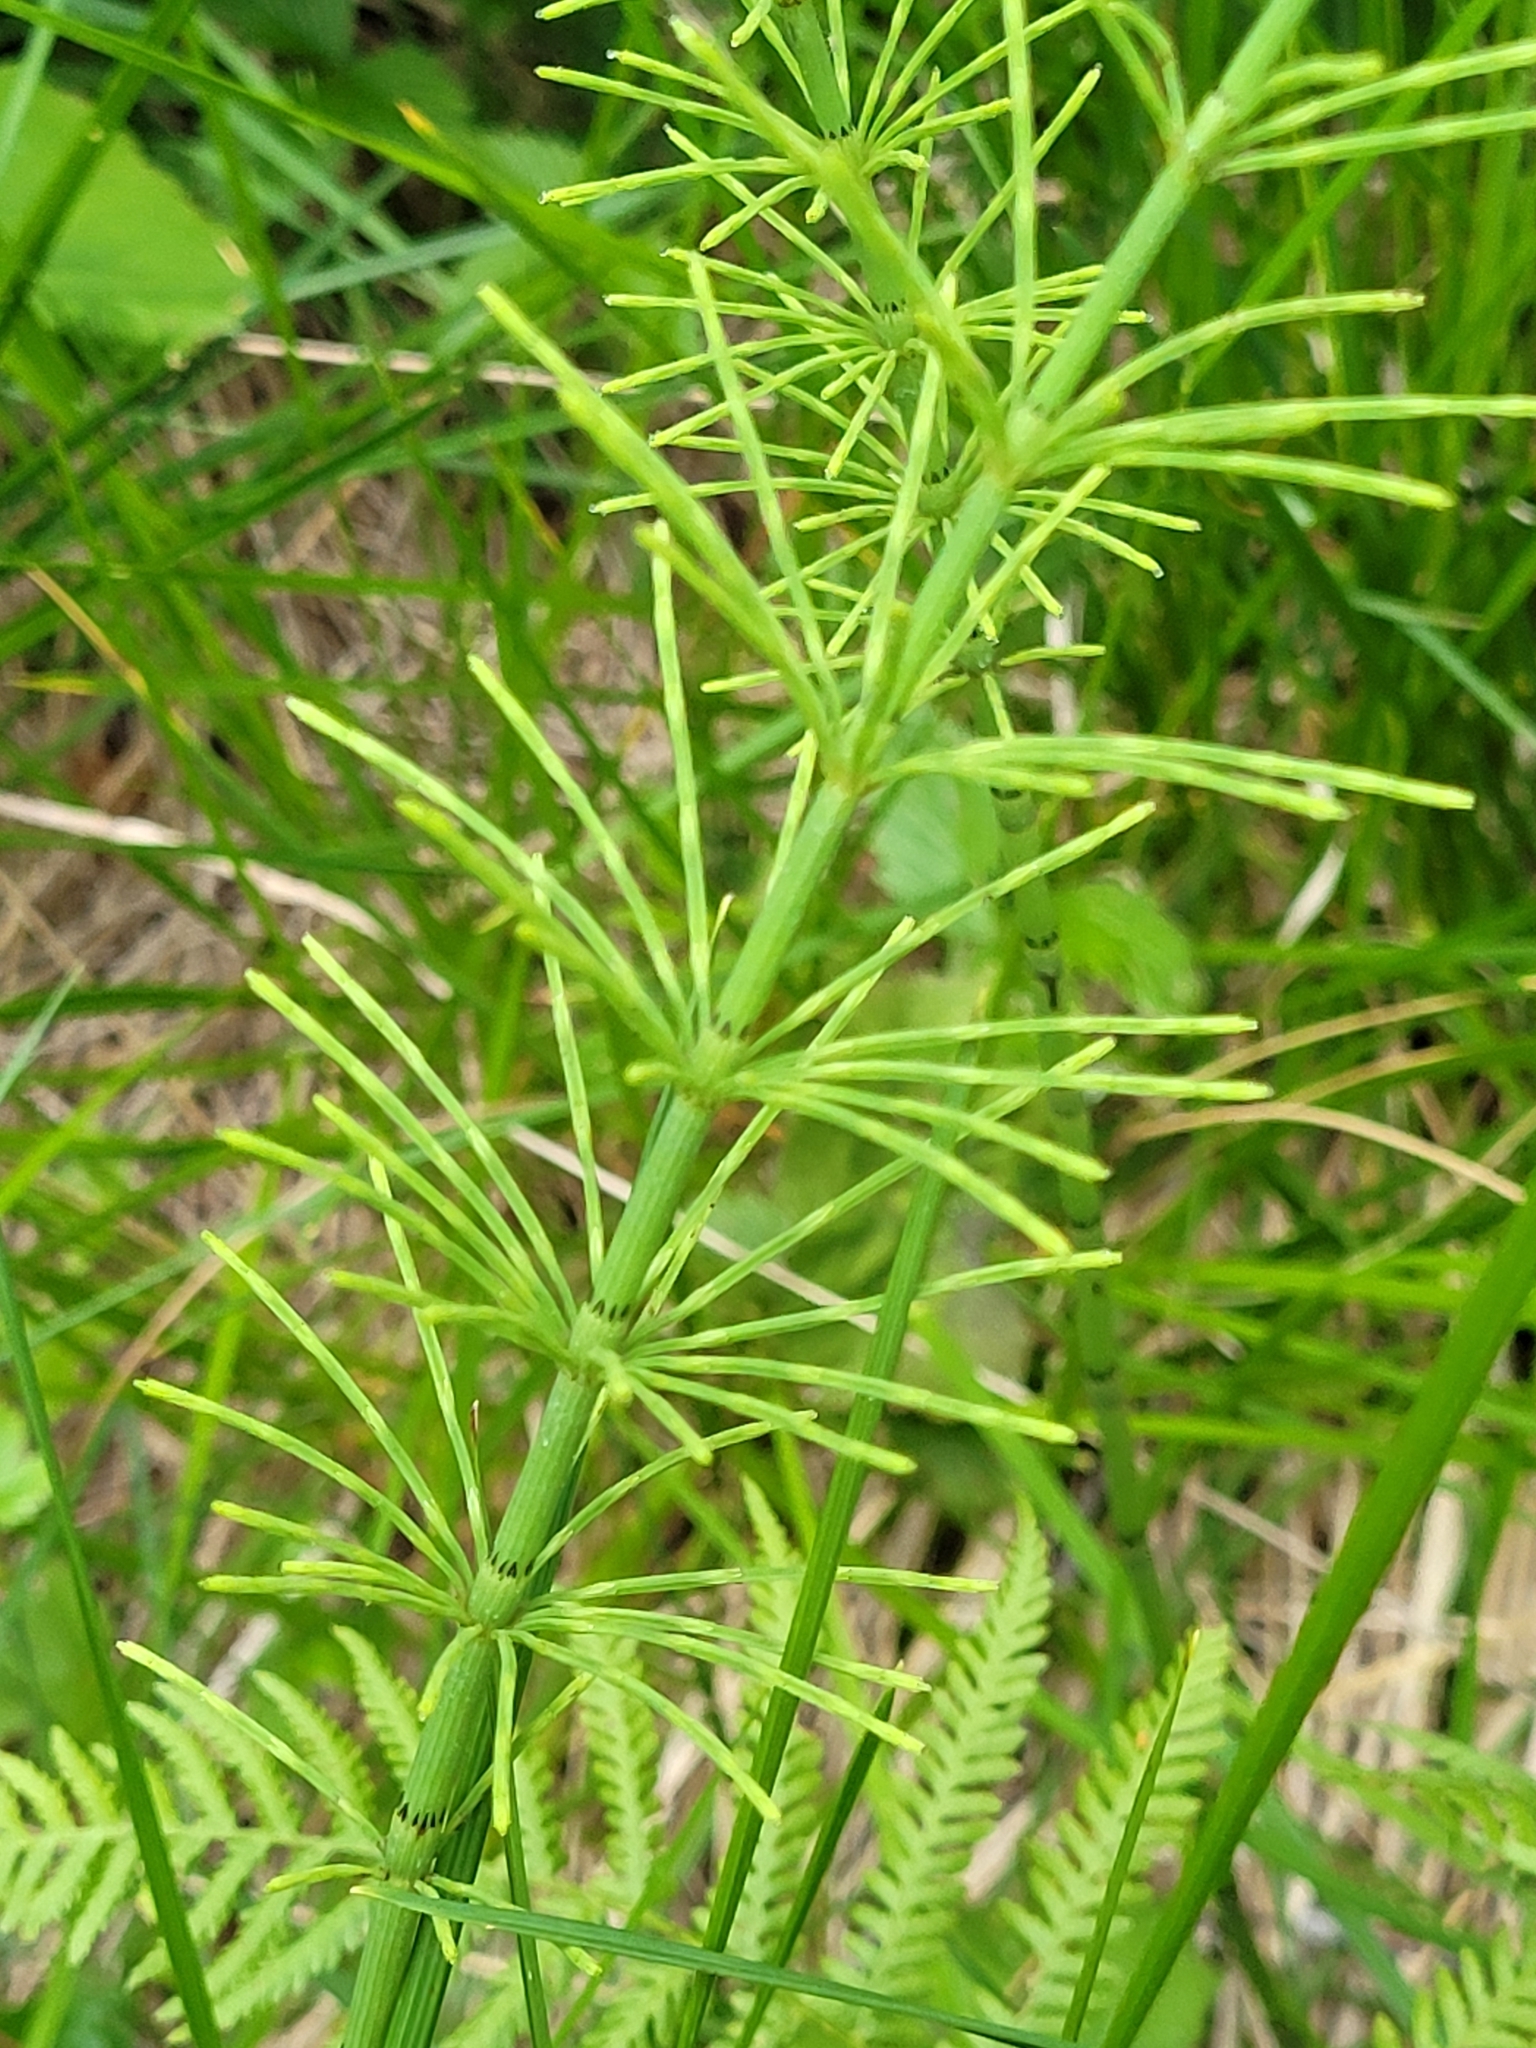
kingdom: Plantae
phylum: Tracheophyta
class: Polypodiopsida
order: Equisetales
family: Equisetaceae
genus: Equisetum
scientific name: Equisetum arvense
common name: Field horsetail
